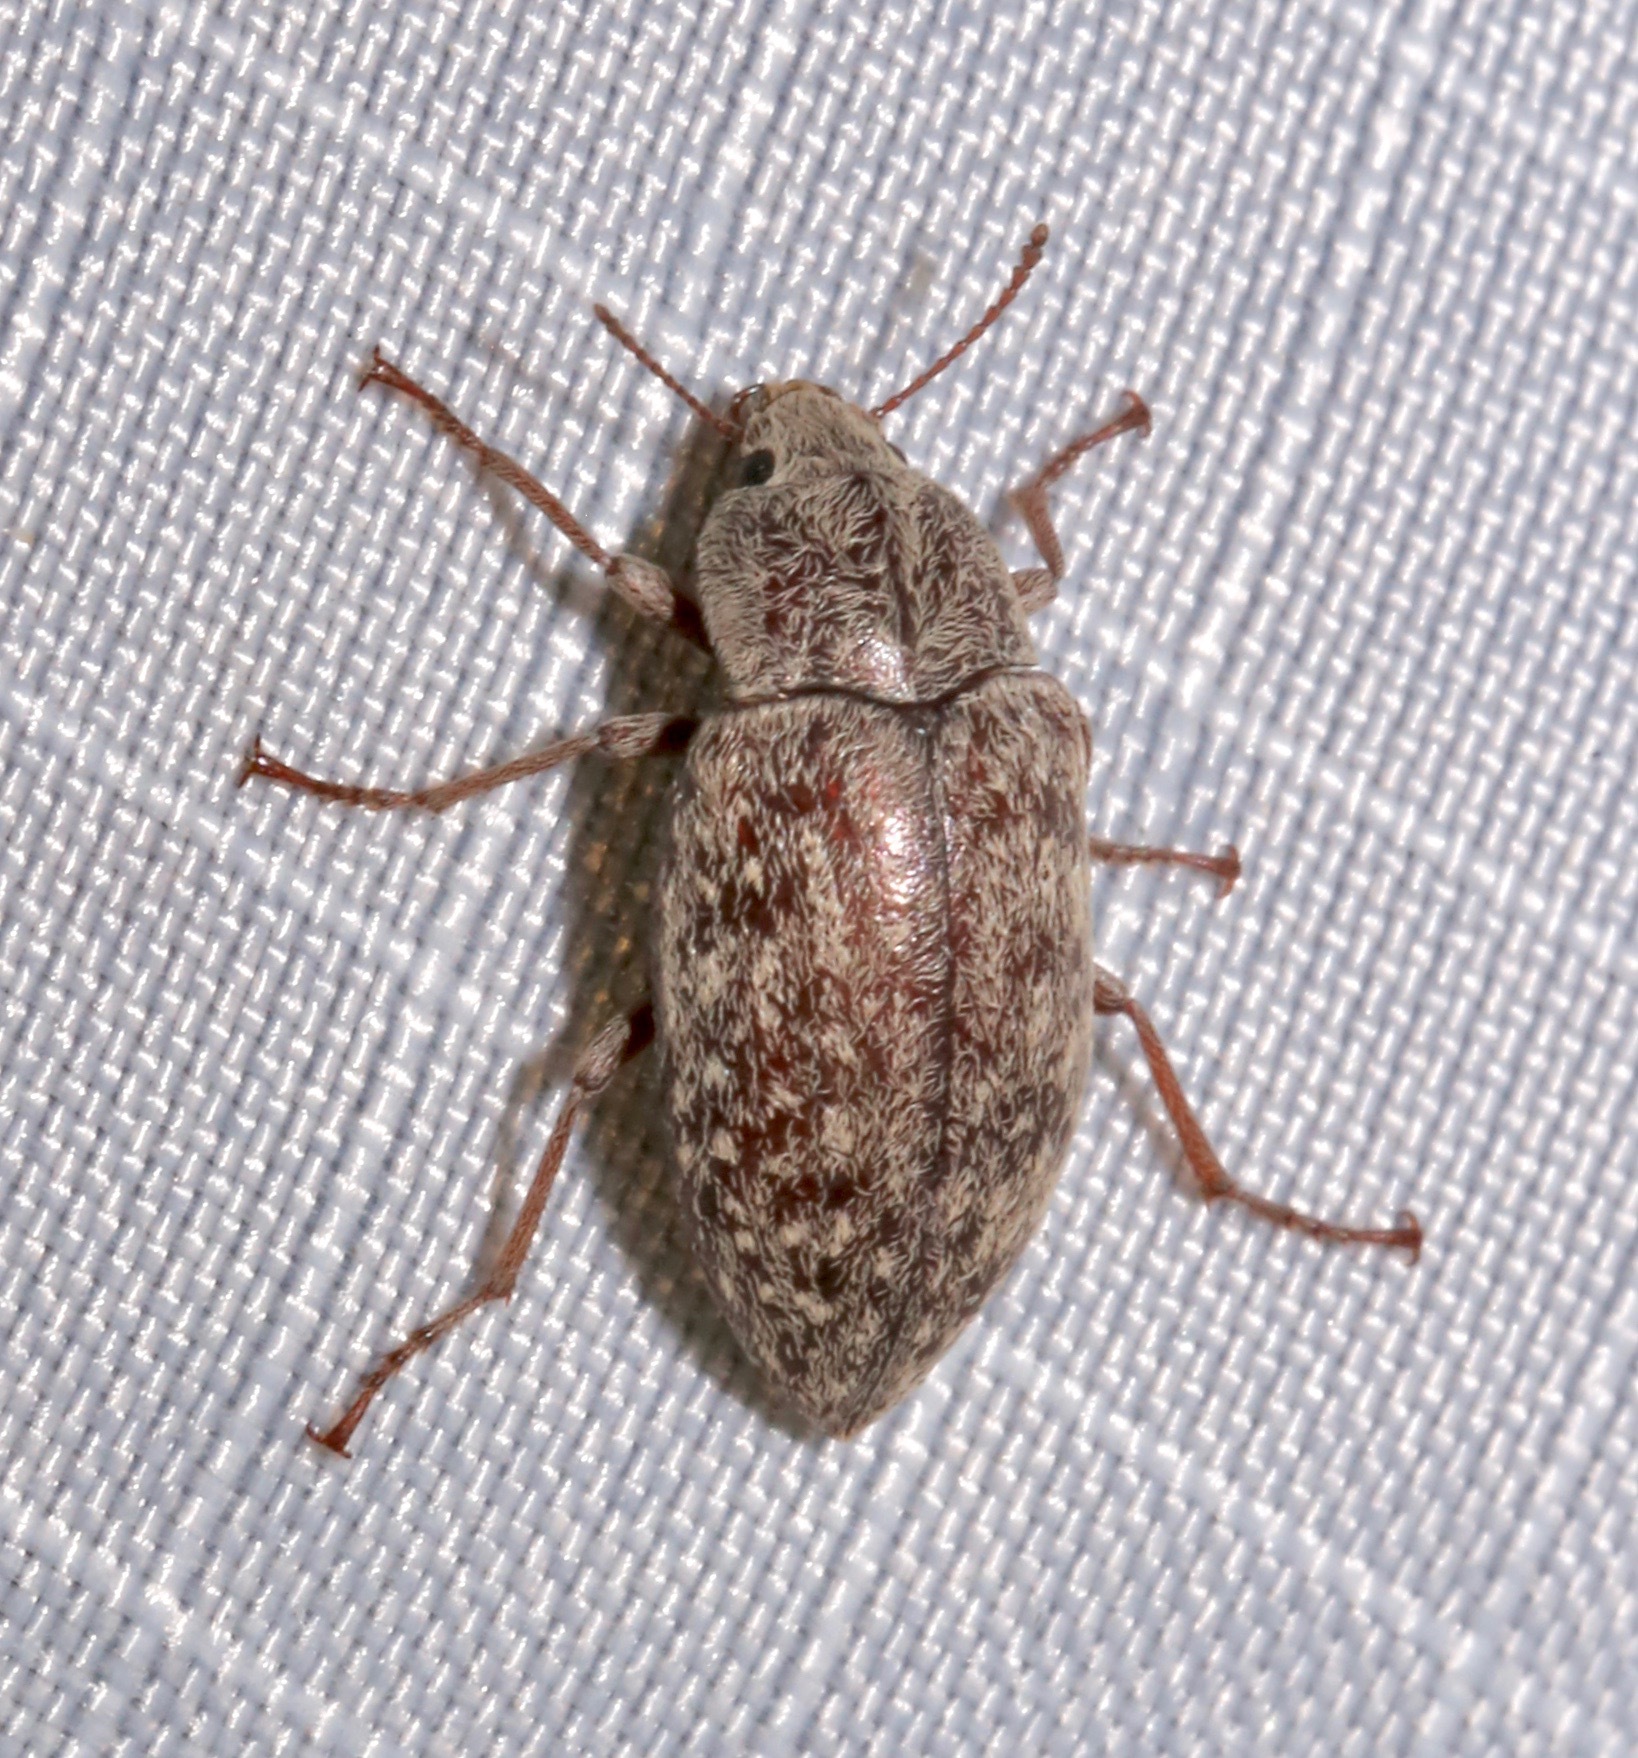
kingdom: Animalia
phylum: Arthropoda
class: Insecta
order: Coleoptera
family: Tenebrionidae
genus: Epitragodes
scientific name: Epitragodes tomentosus
